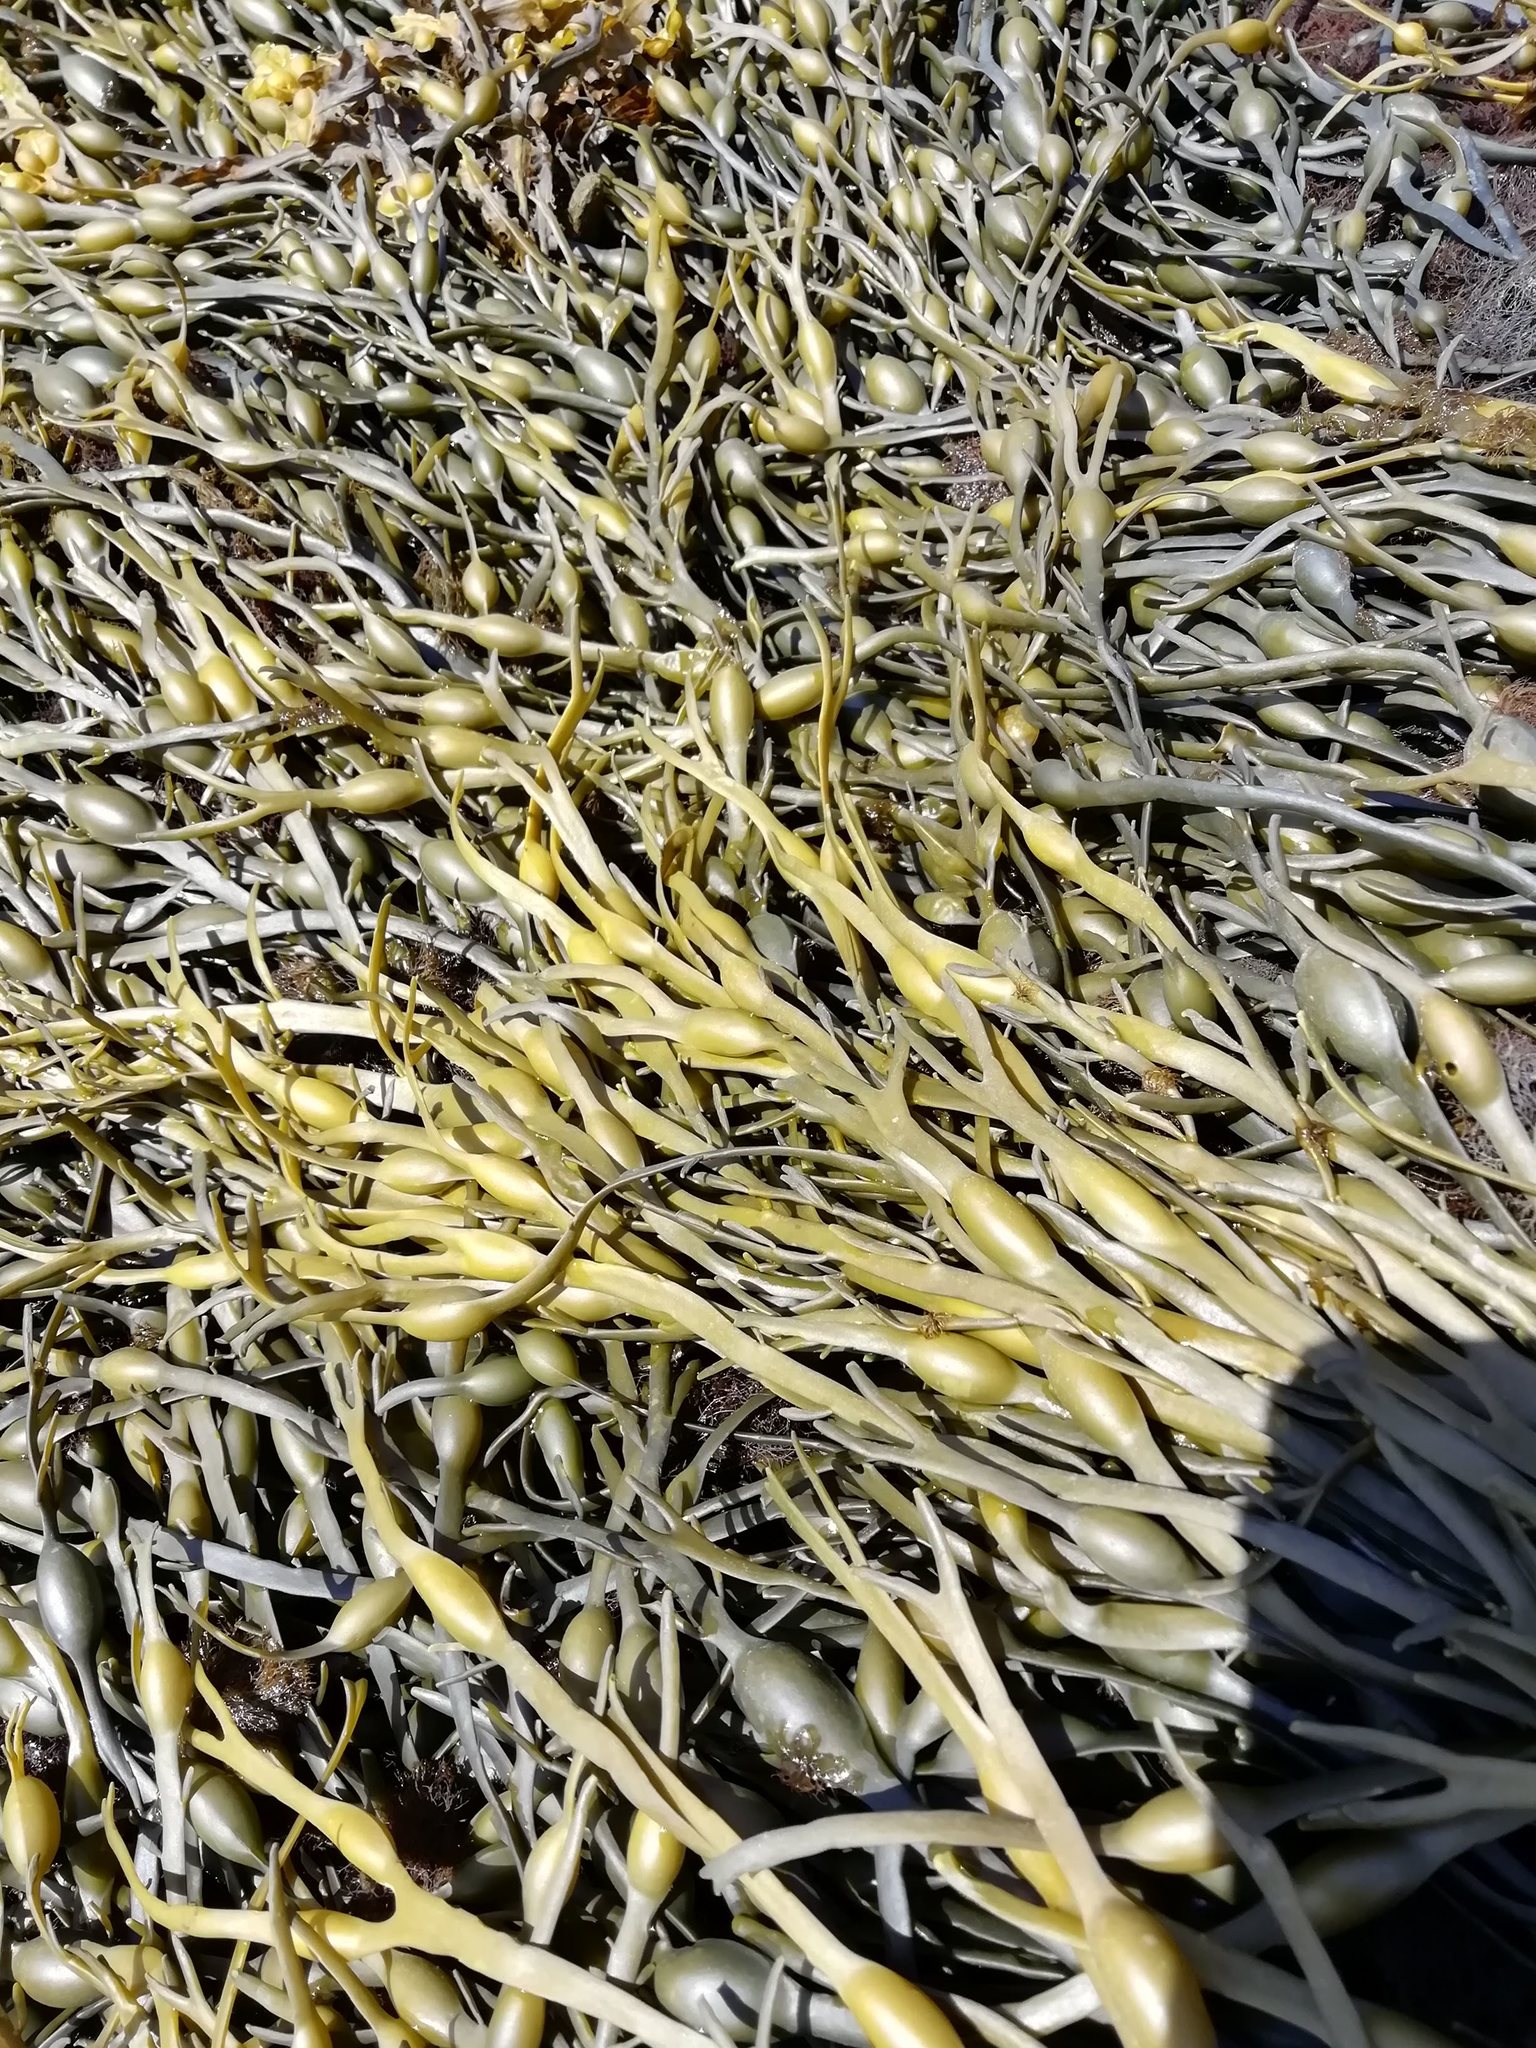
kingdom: Chromista
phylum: Ochrophyta
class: Phaeophyceae
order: Fucales
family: Fucaceae
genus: Ascophyllum
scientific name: Ascophyllum nodosum
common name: Knotted wrack
